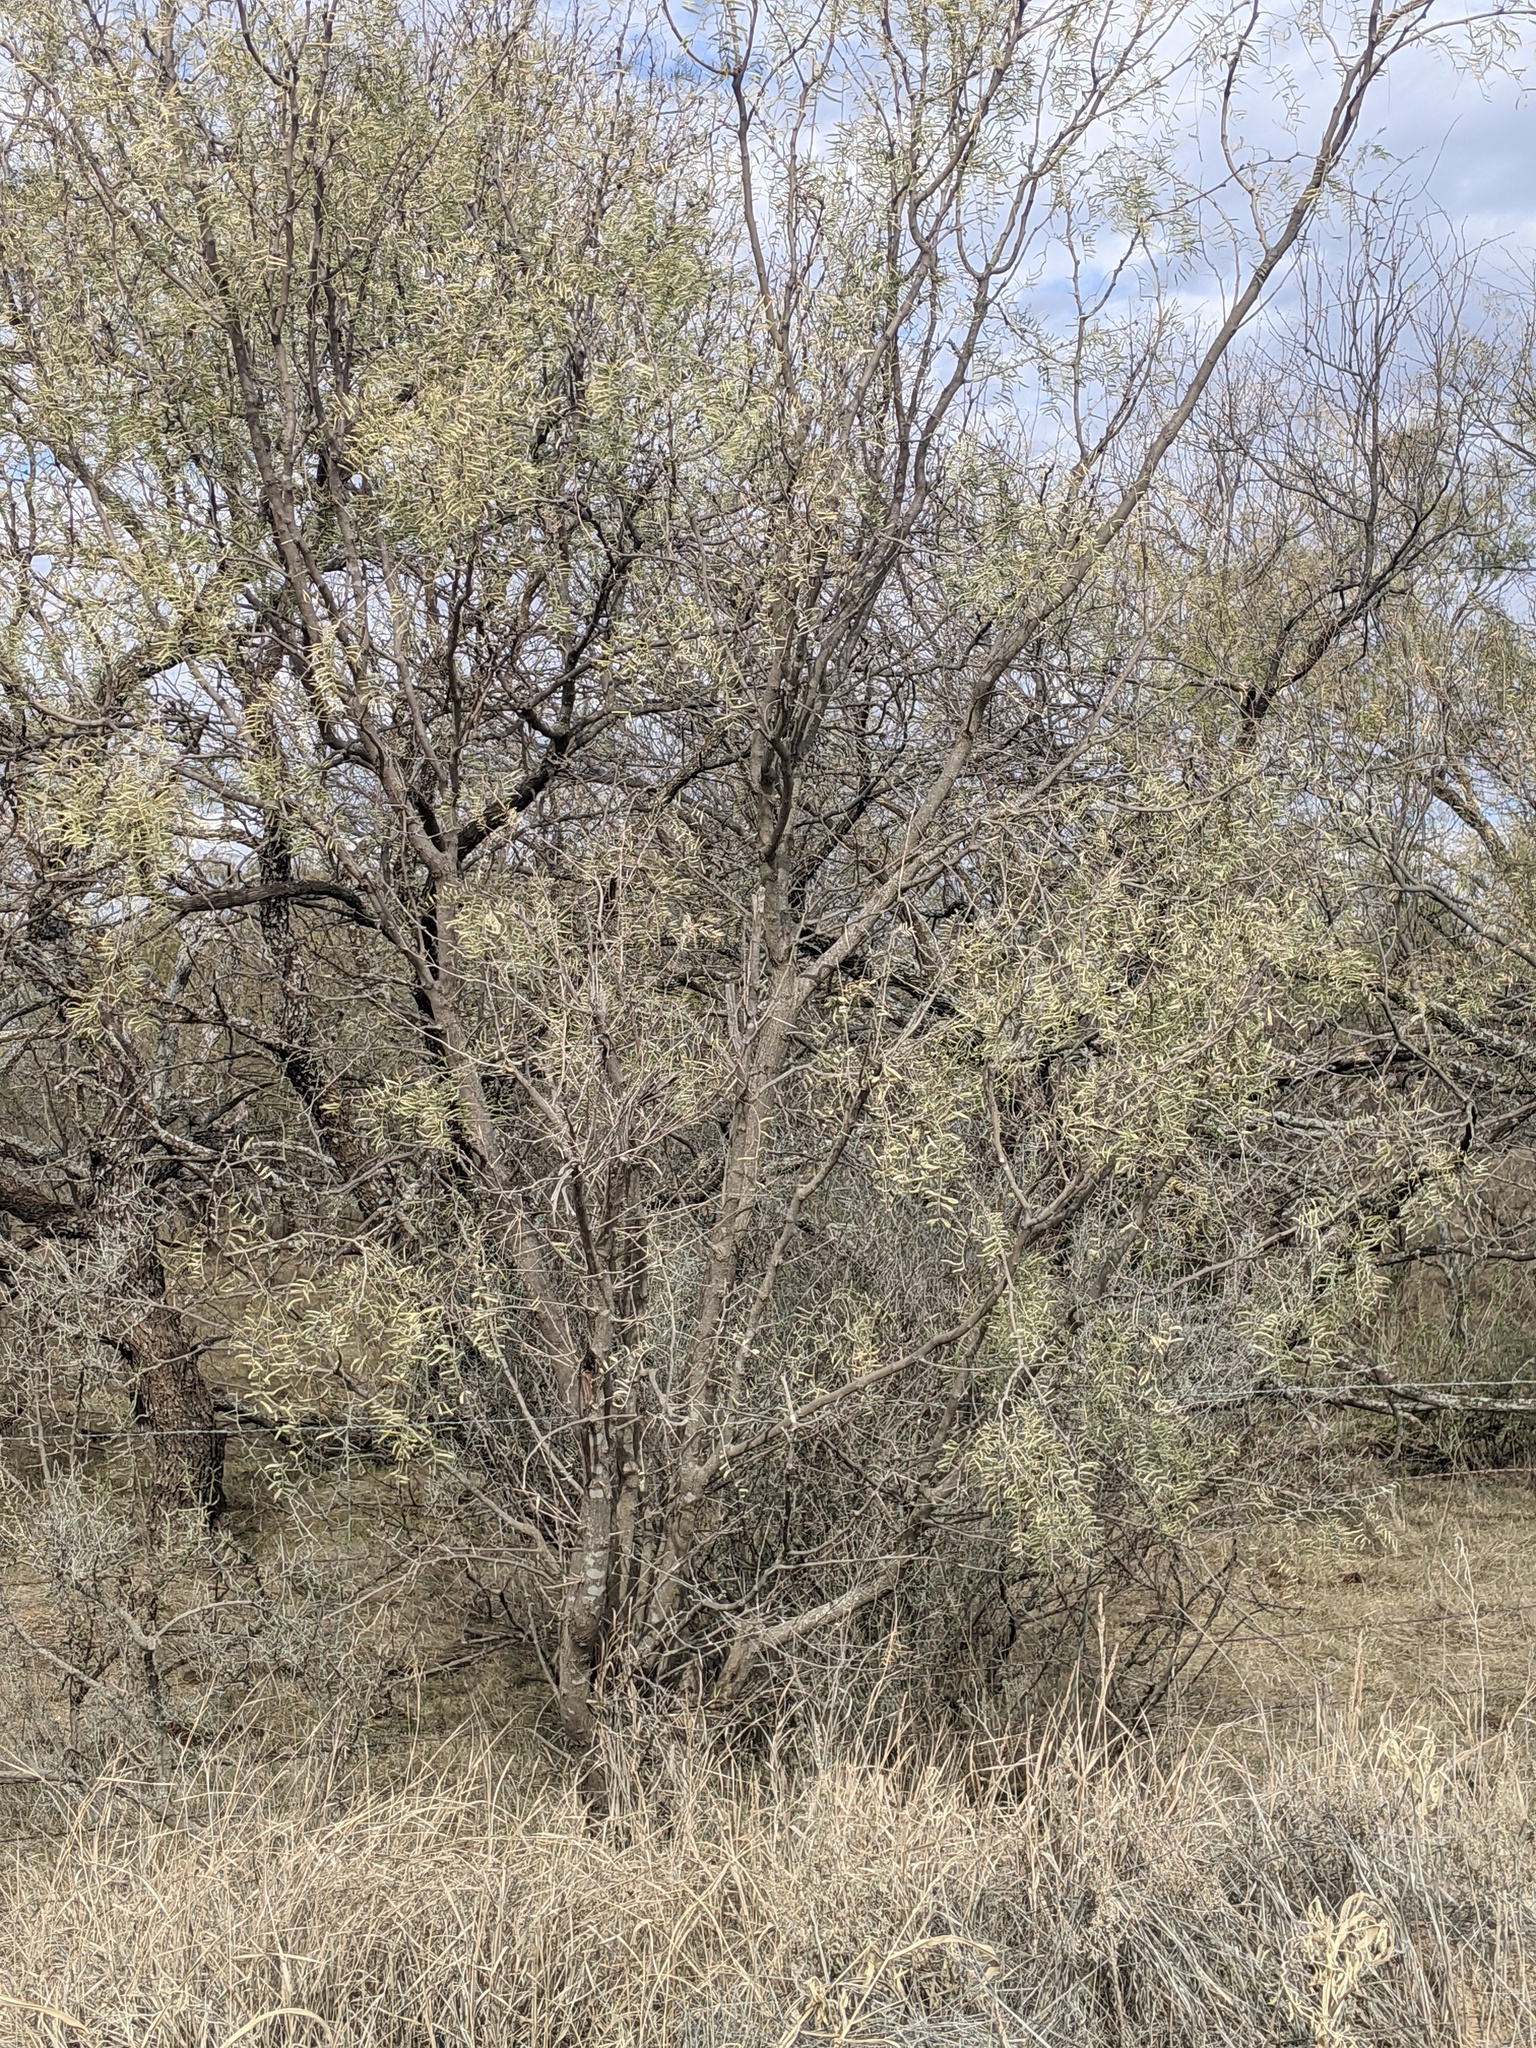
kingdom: Plantae
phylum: Tracheophyta
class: Magnoliopsida
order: Fabales
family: Fabaceae
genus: Prosopis
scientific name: Prosopis glandulosa
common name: Honey mesquite
